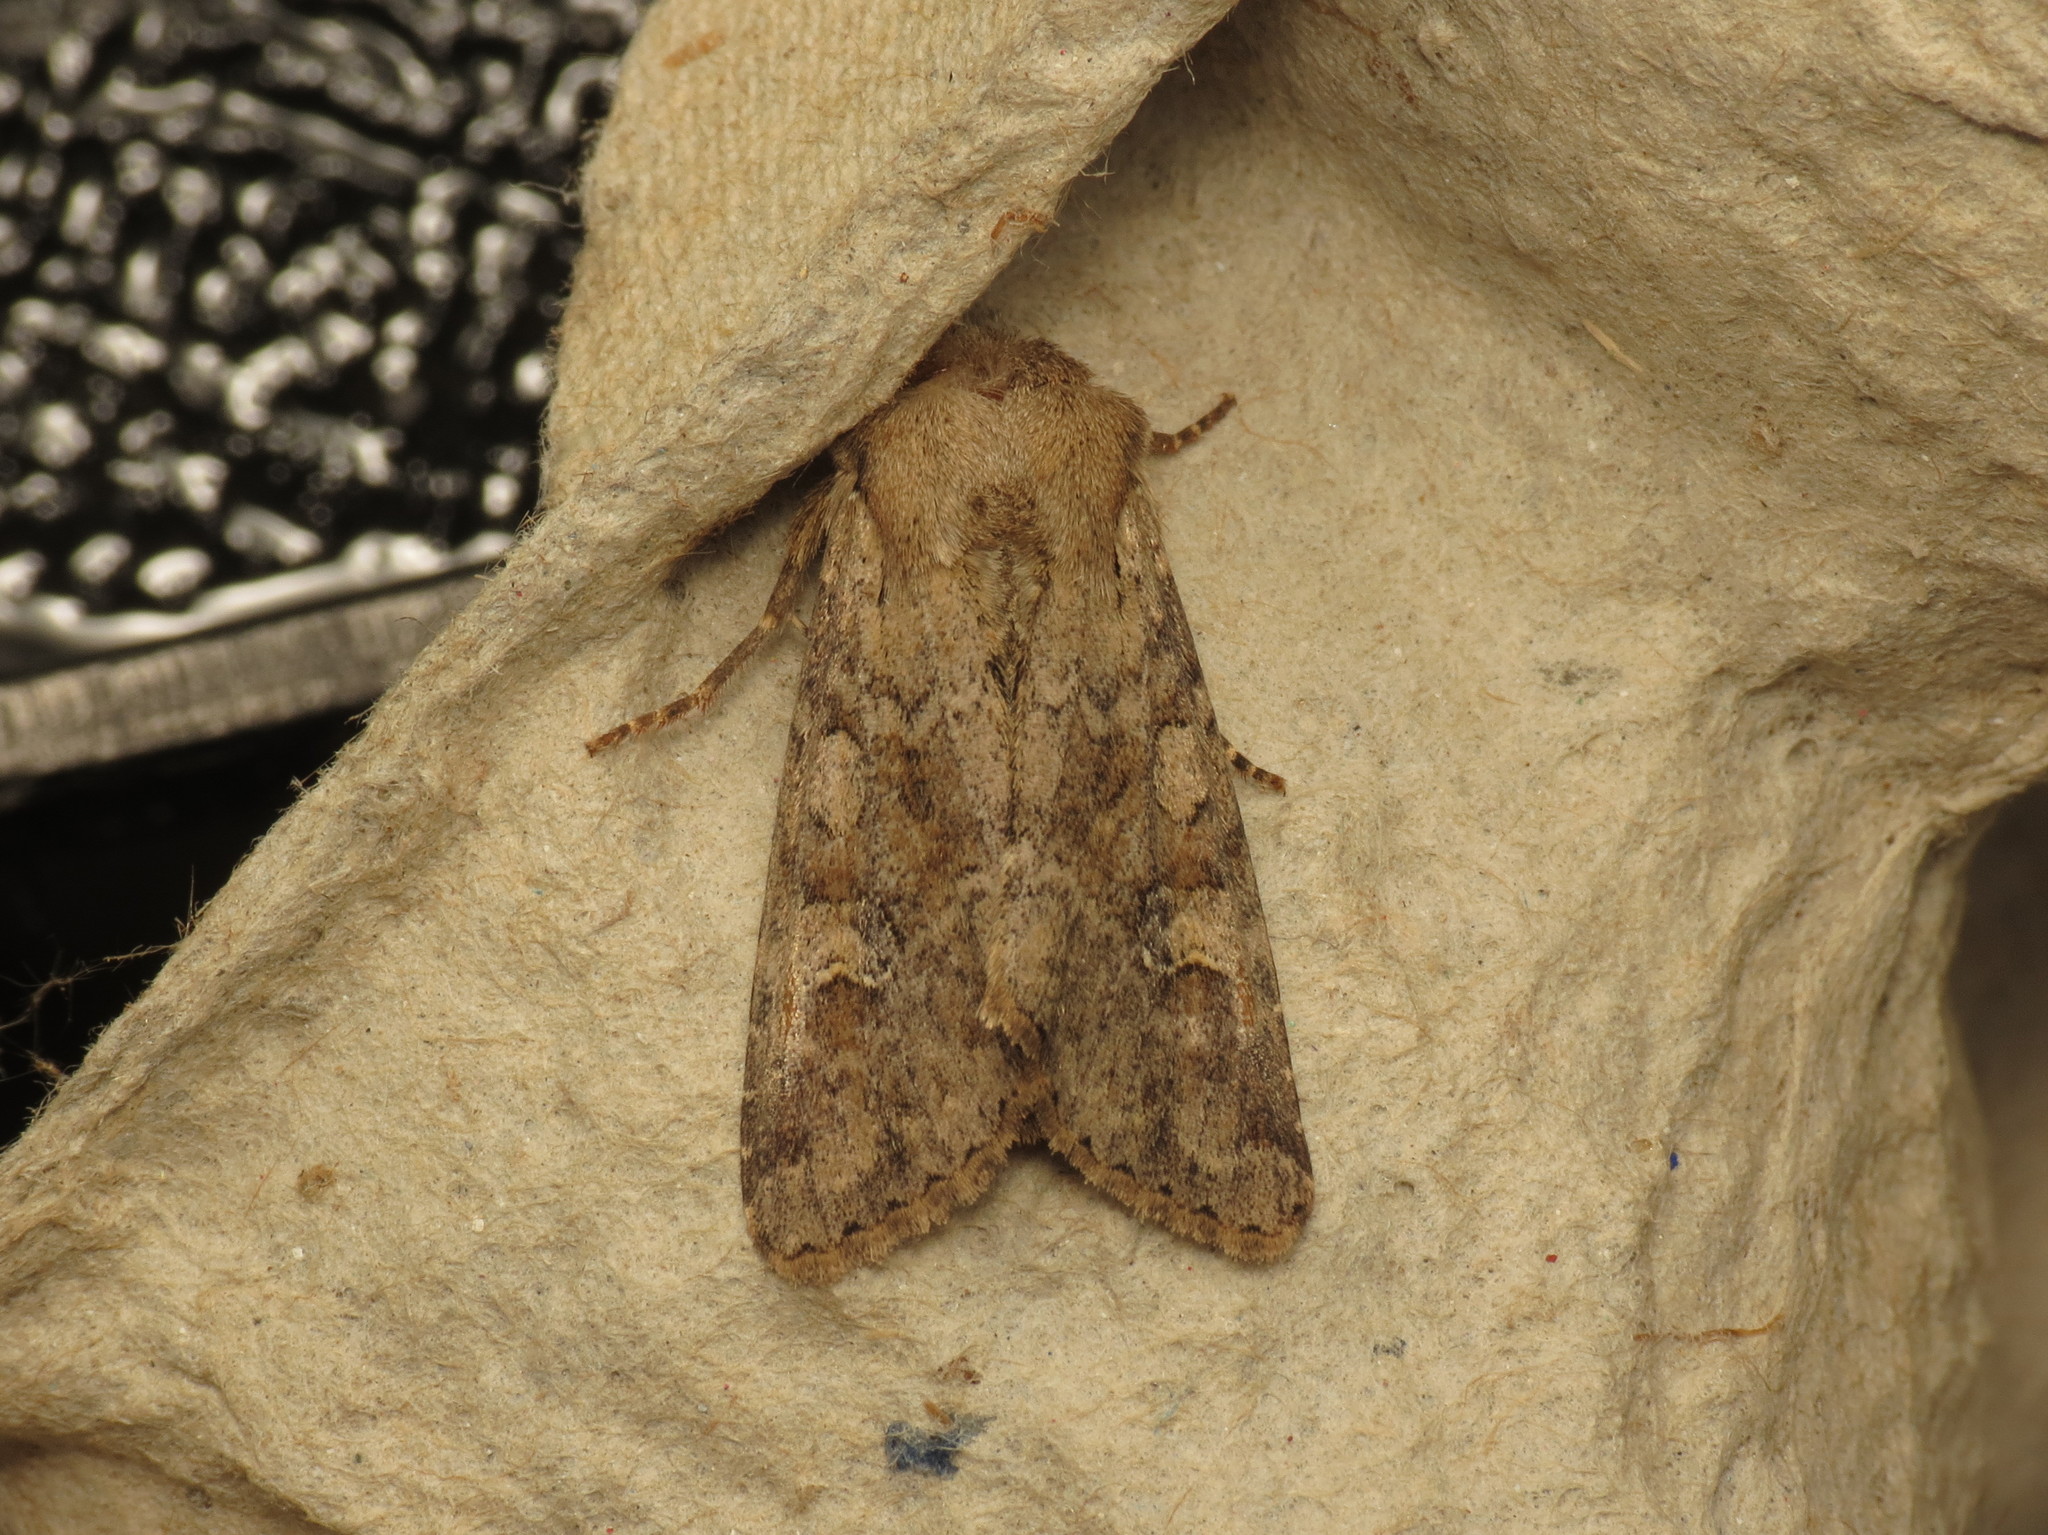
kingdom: Animalia
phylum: Arthropoda
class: Insecta
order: Lepidoptera
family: Noctuidae
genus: Apamea
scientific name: Apamea sordens
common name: Rustic shoulder-knot
